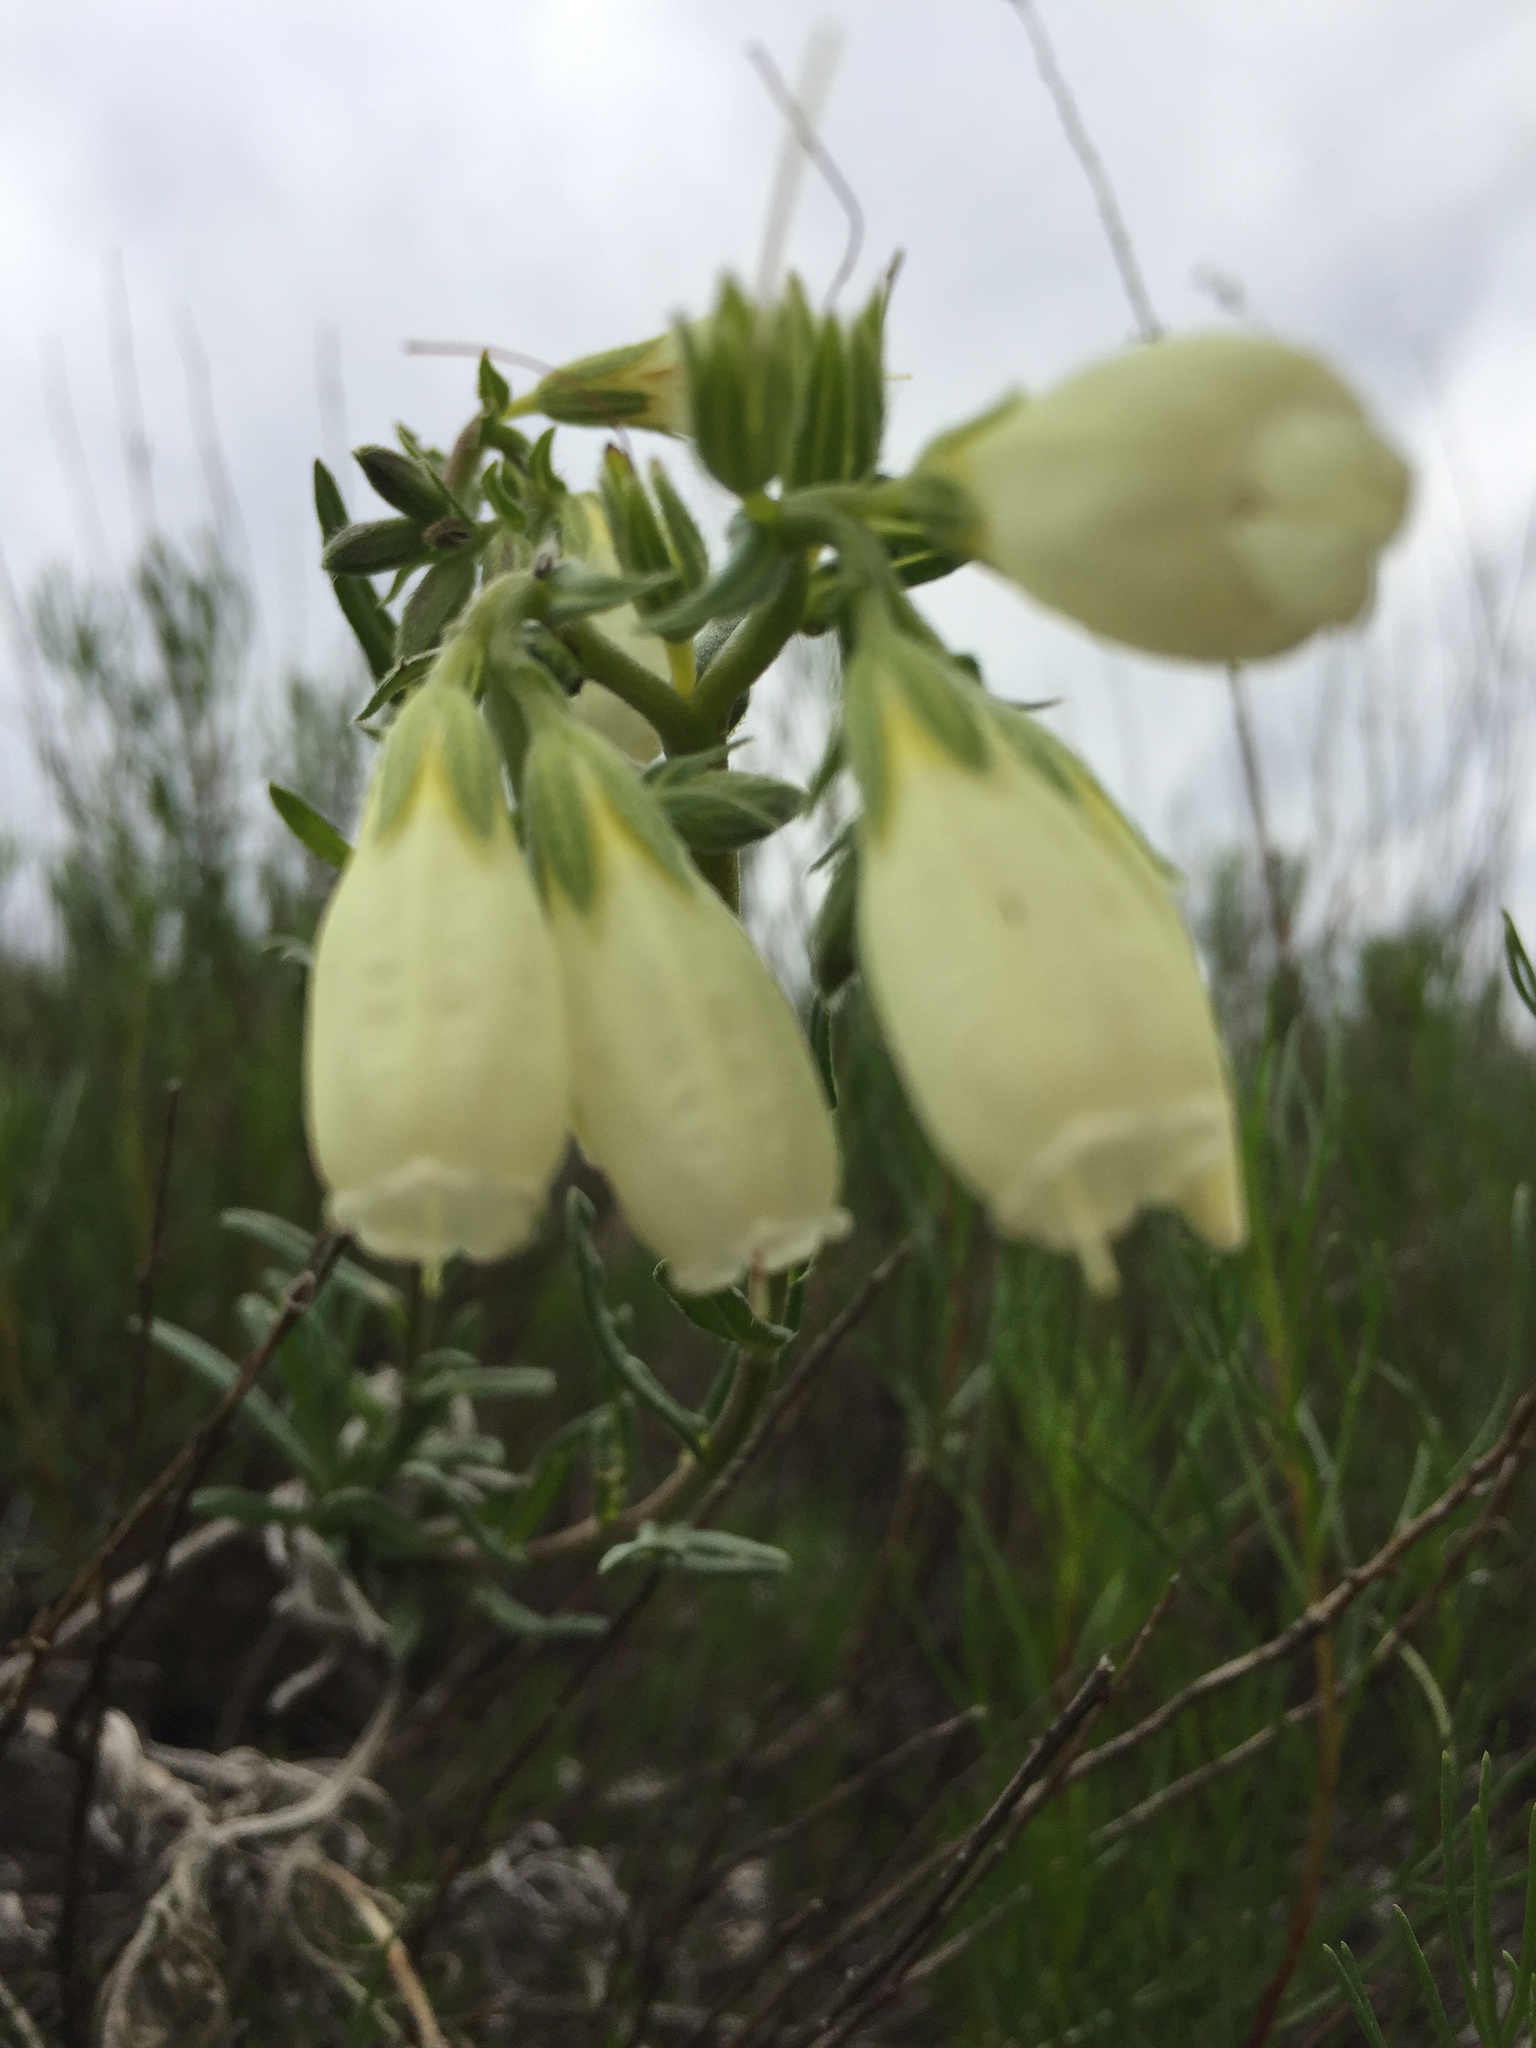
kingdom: Plantae
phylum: Tracheophyta
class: Magnoliopsida
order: Boraginales
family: Boraginaceae
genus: Onosma
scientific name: Onosma simplicissima
